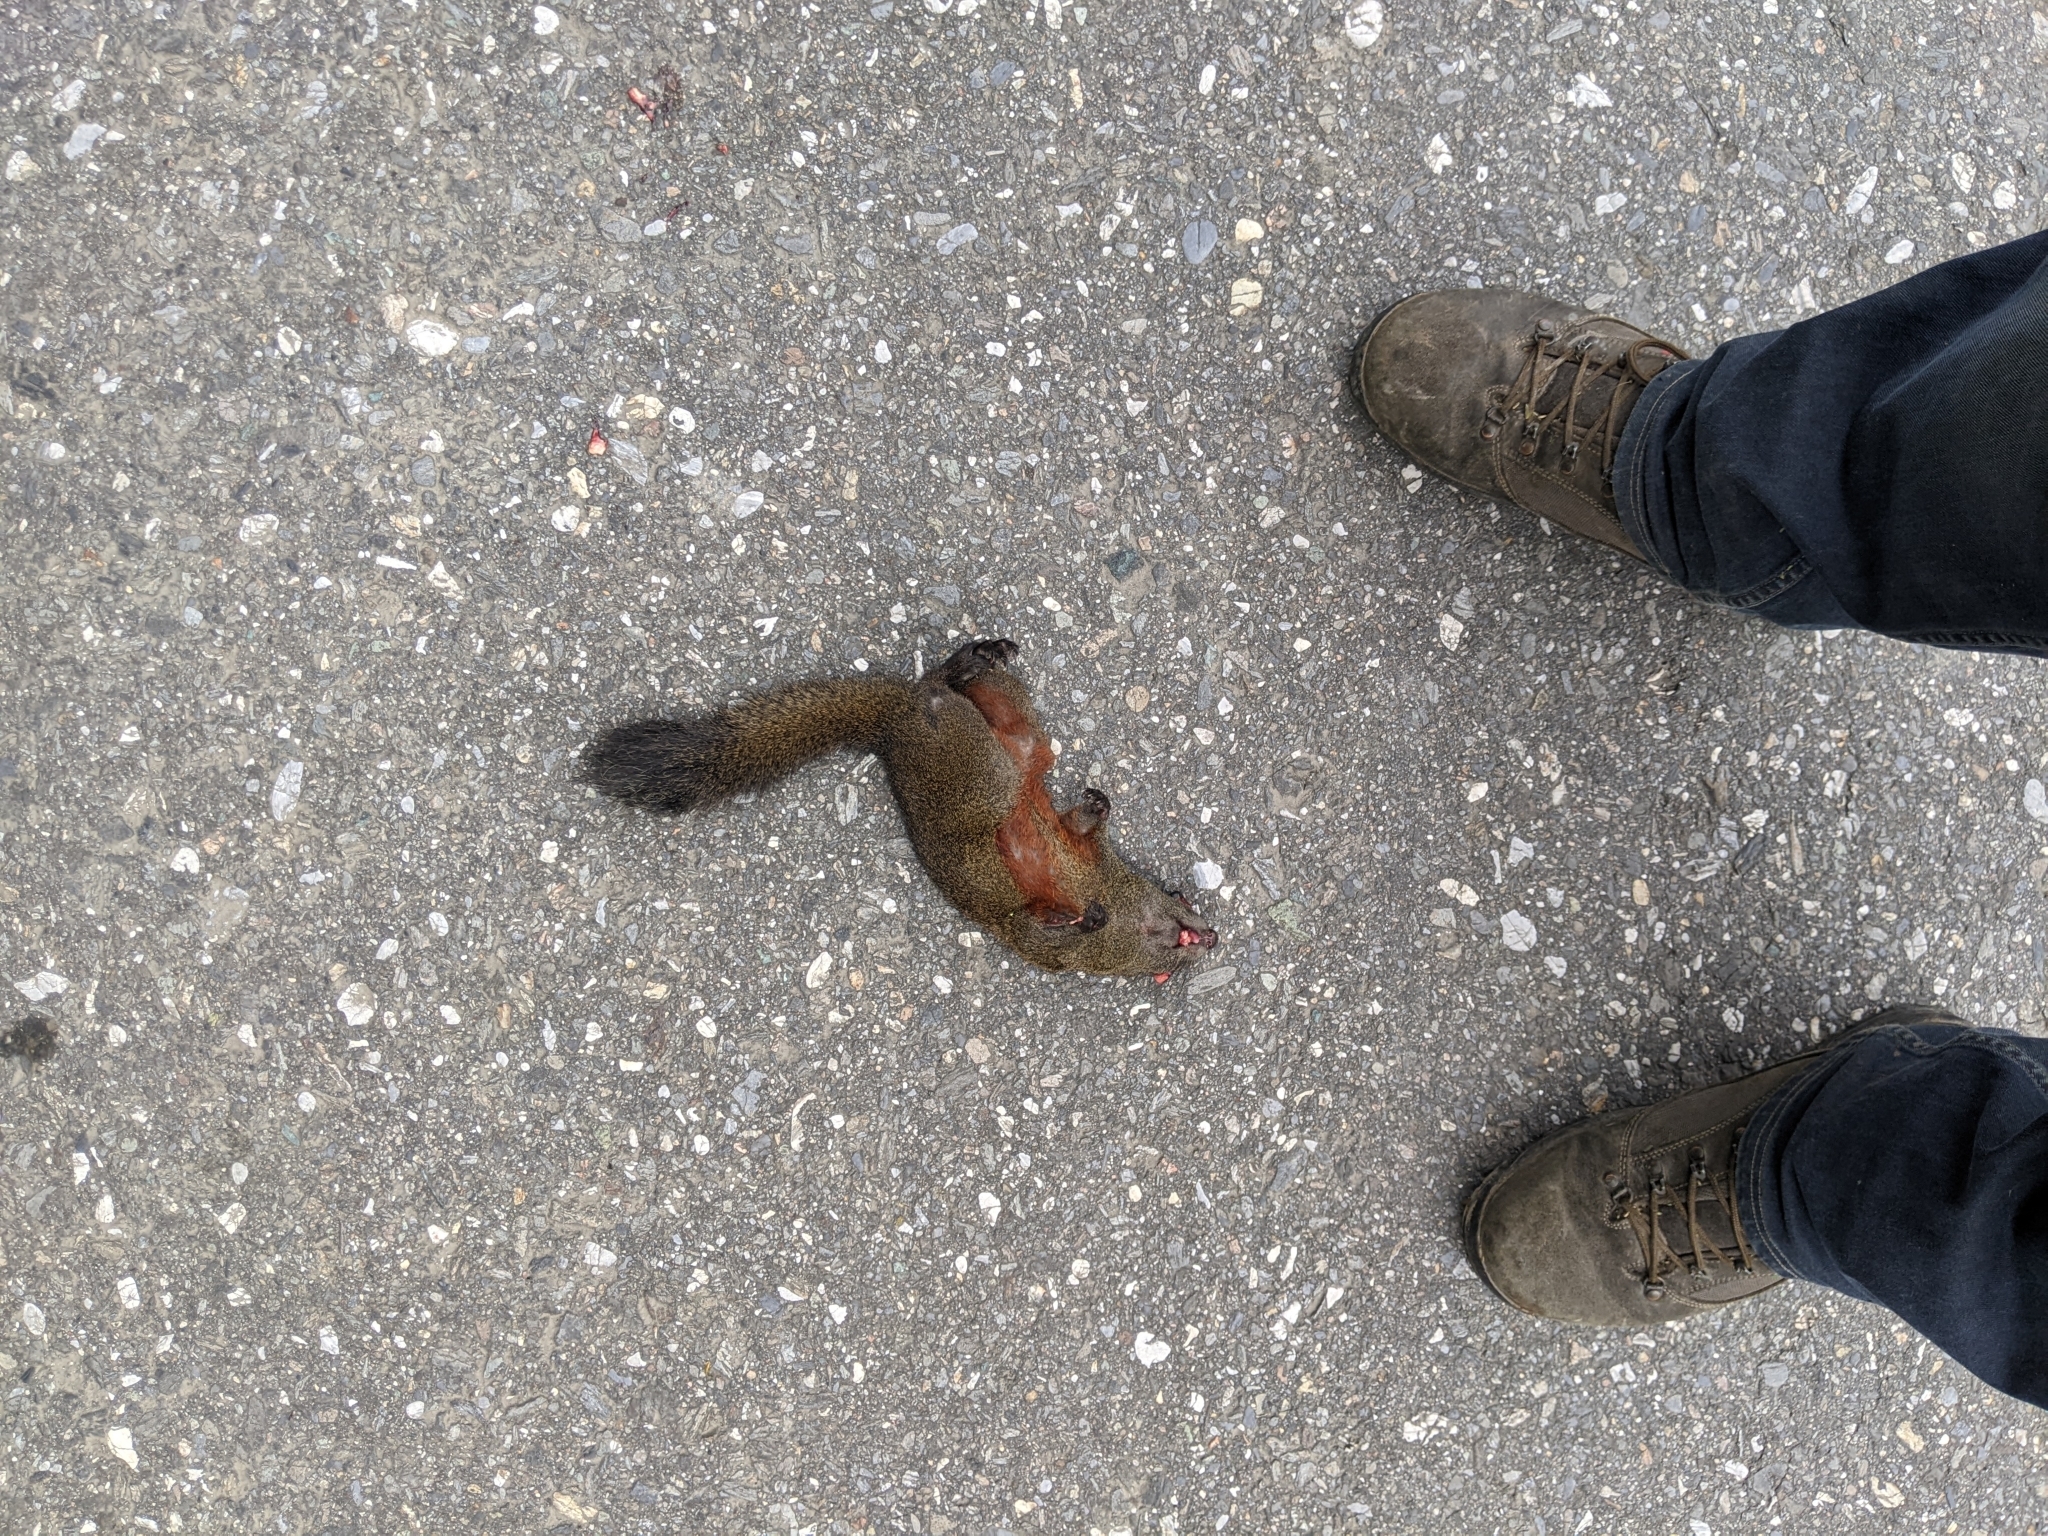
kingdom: Animalia
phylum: Chordata
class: Mammalia
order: Rodentia
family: Sciuridae
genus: Callosciurus
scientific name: Callosciurus erythraeus
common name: Pallas's squirrel
